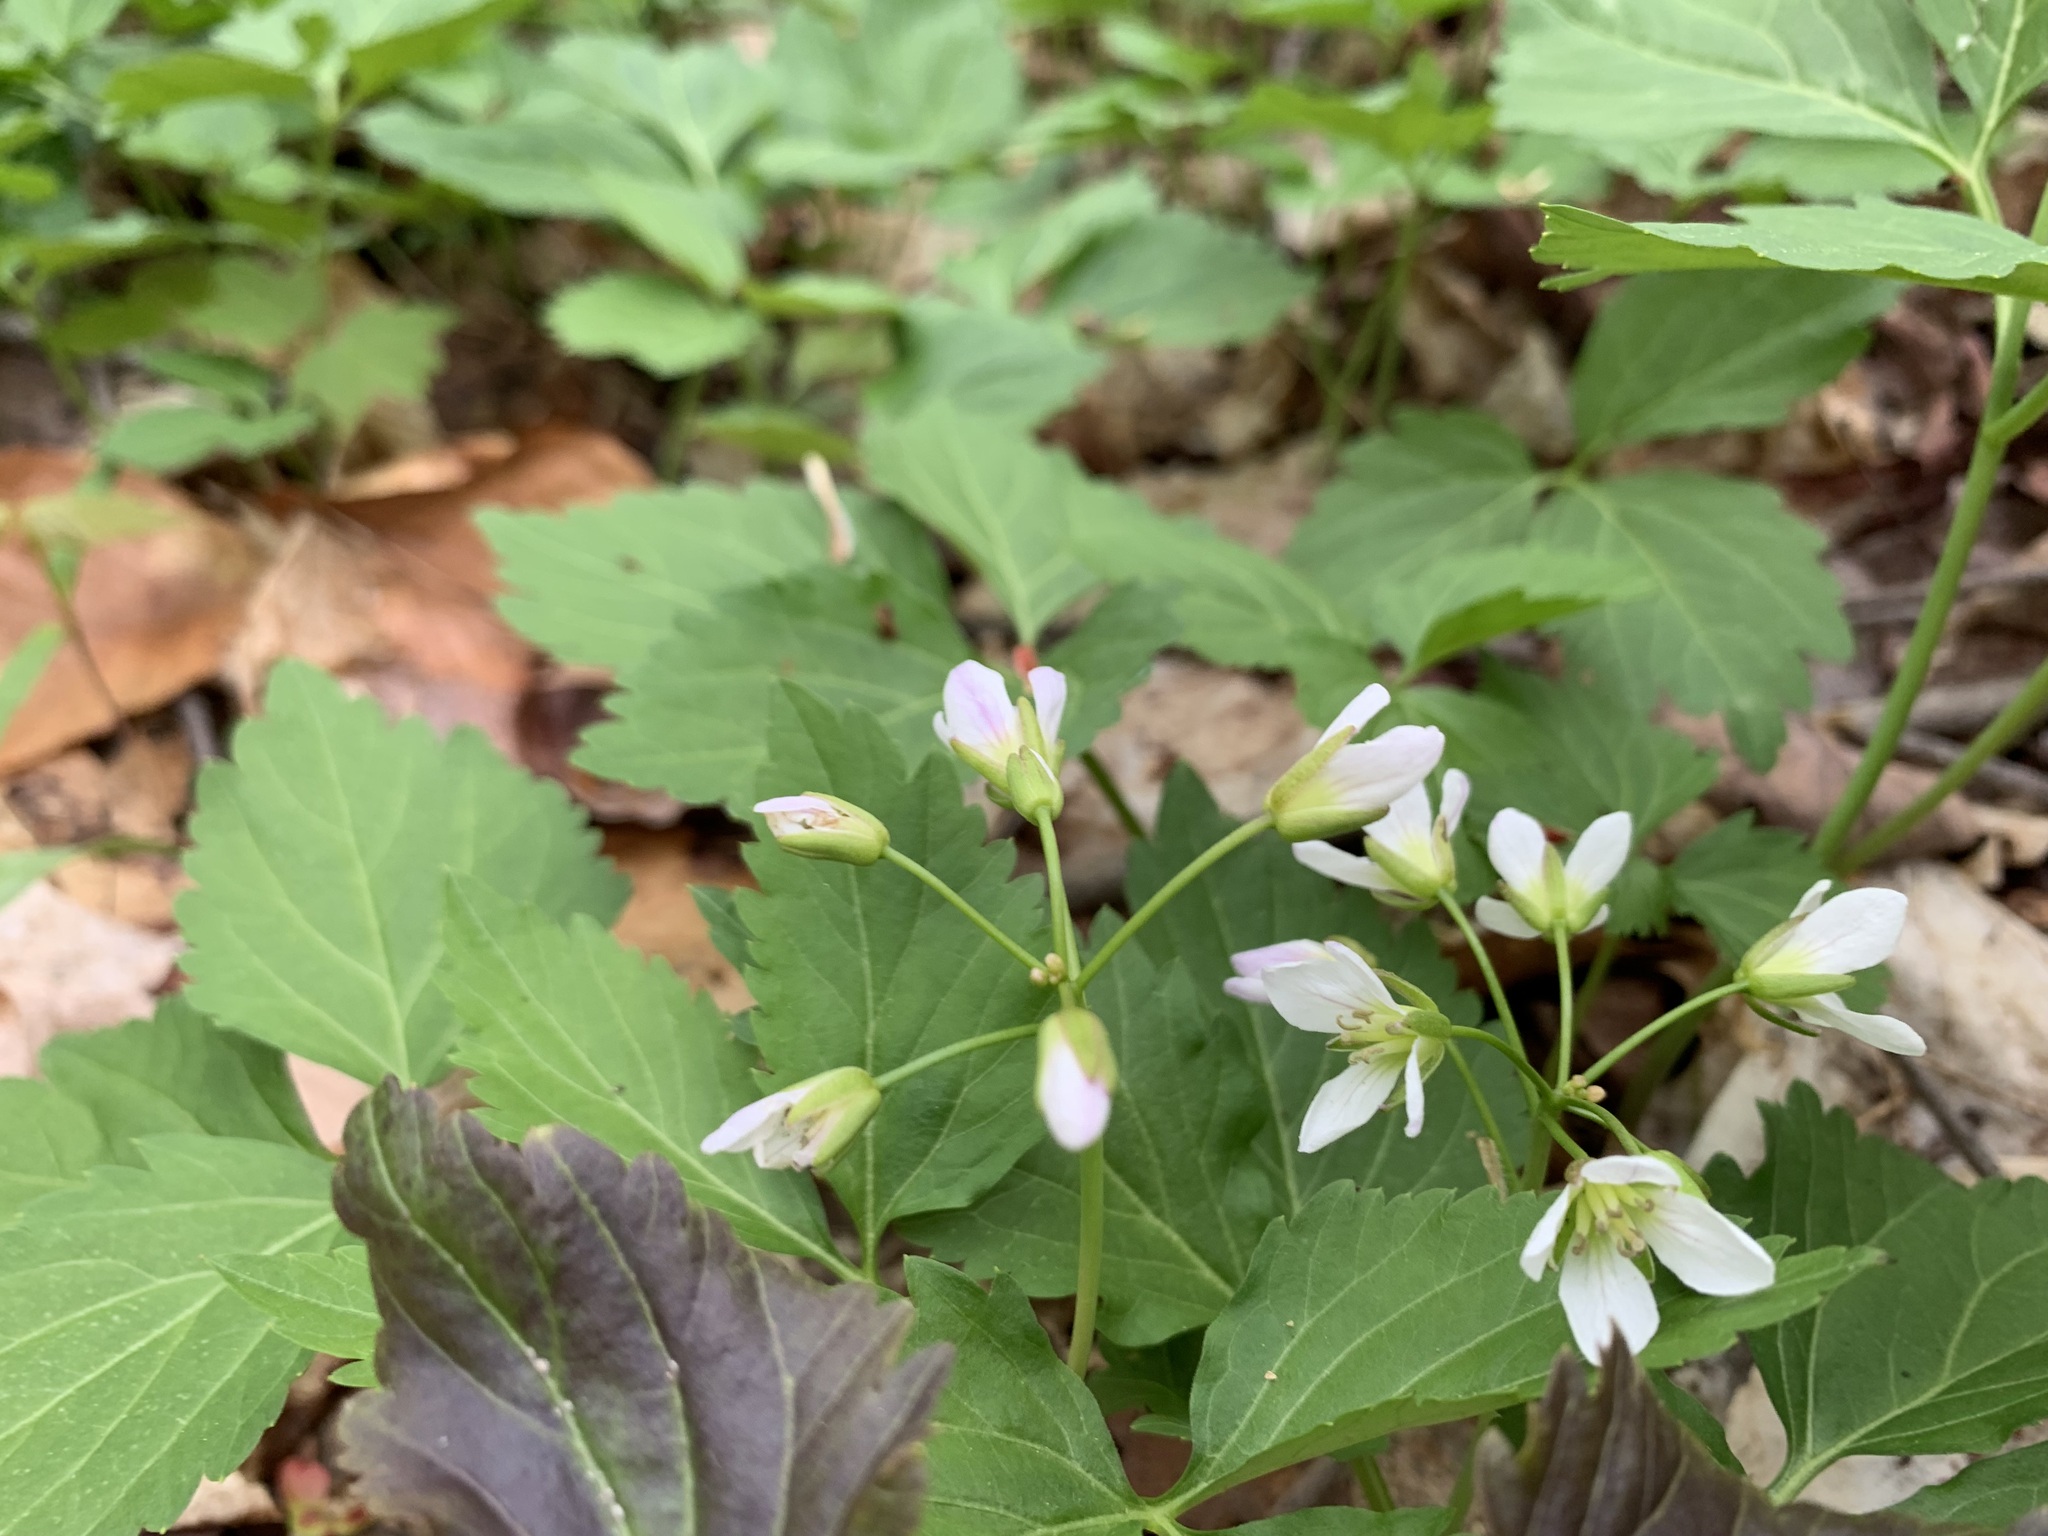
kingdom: Plantae
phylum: Tracheophyta
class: Magnoliopsida
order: Brassicales
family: Brassicaceae
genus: Cardamine
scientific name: Cardamine diphylla
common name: Broad-leaved toothwort
